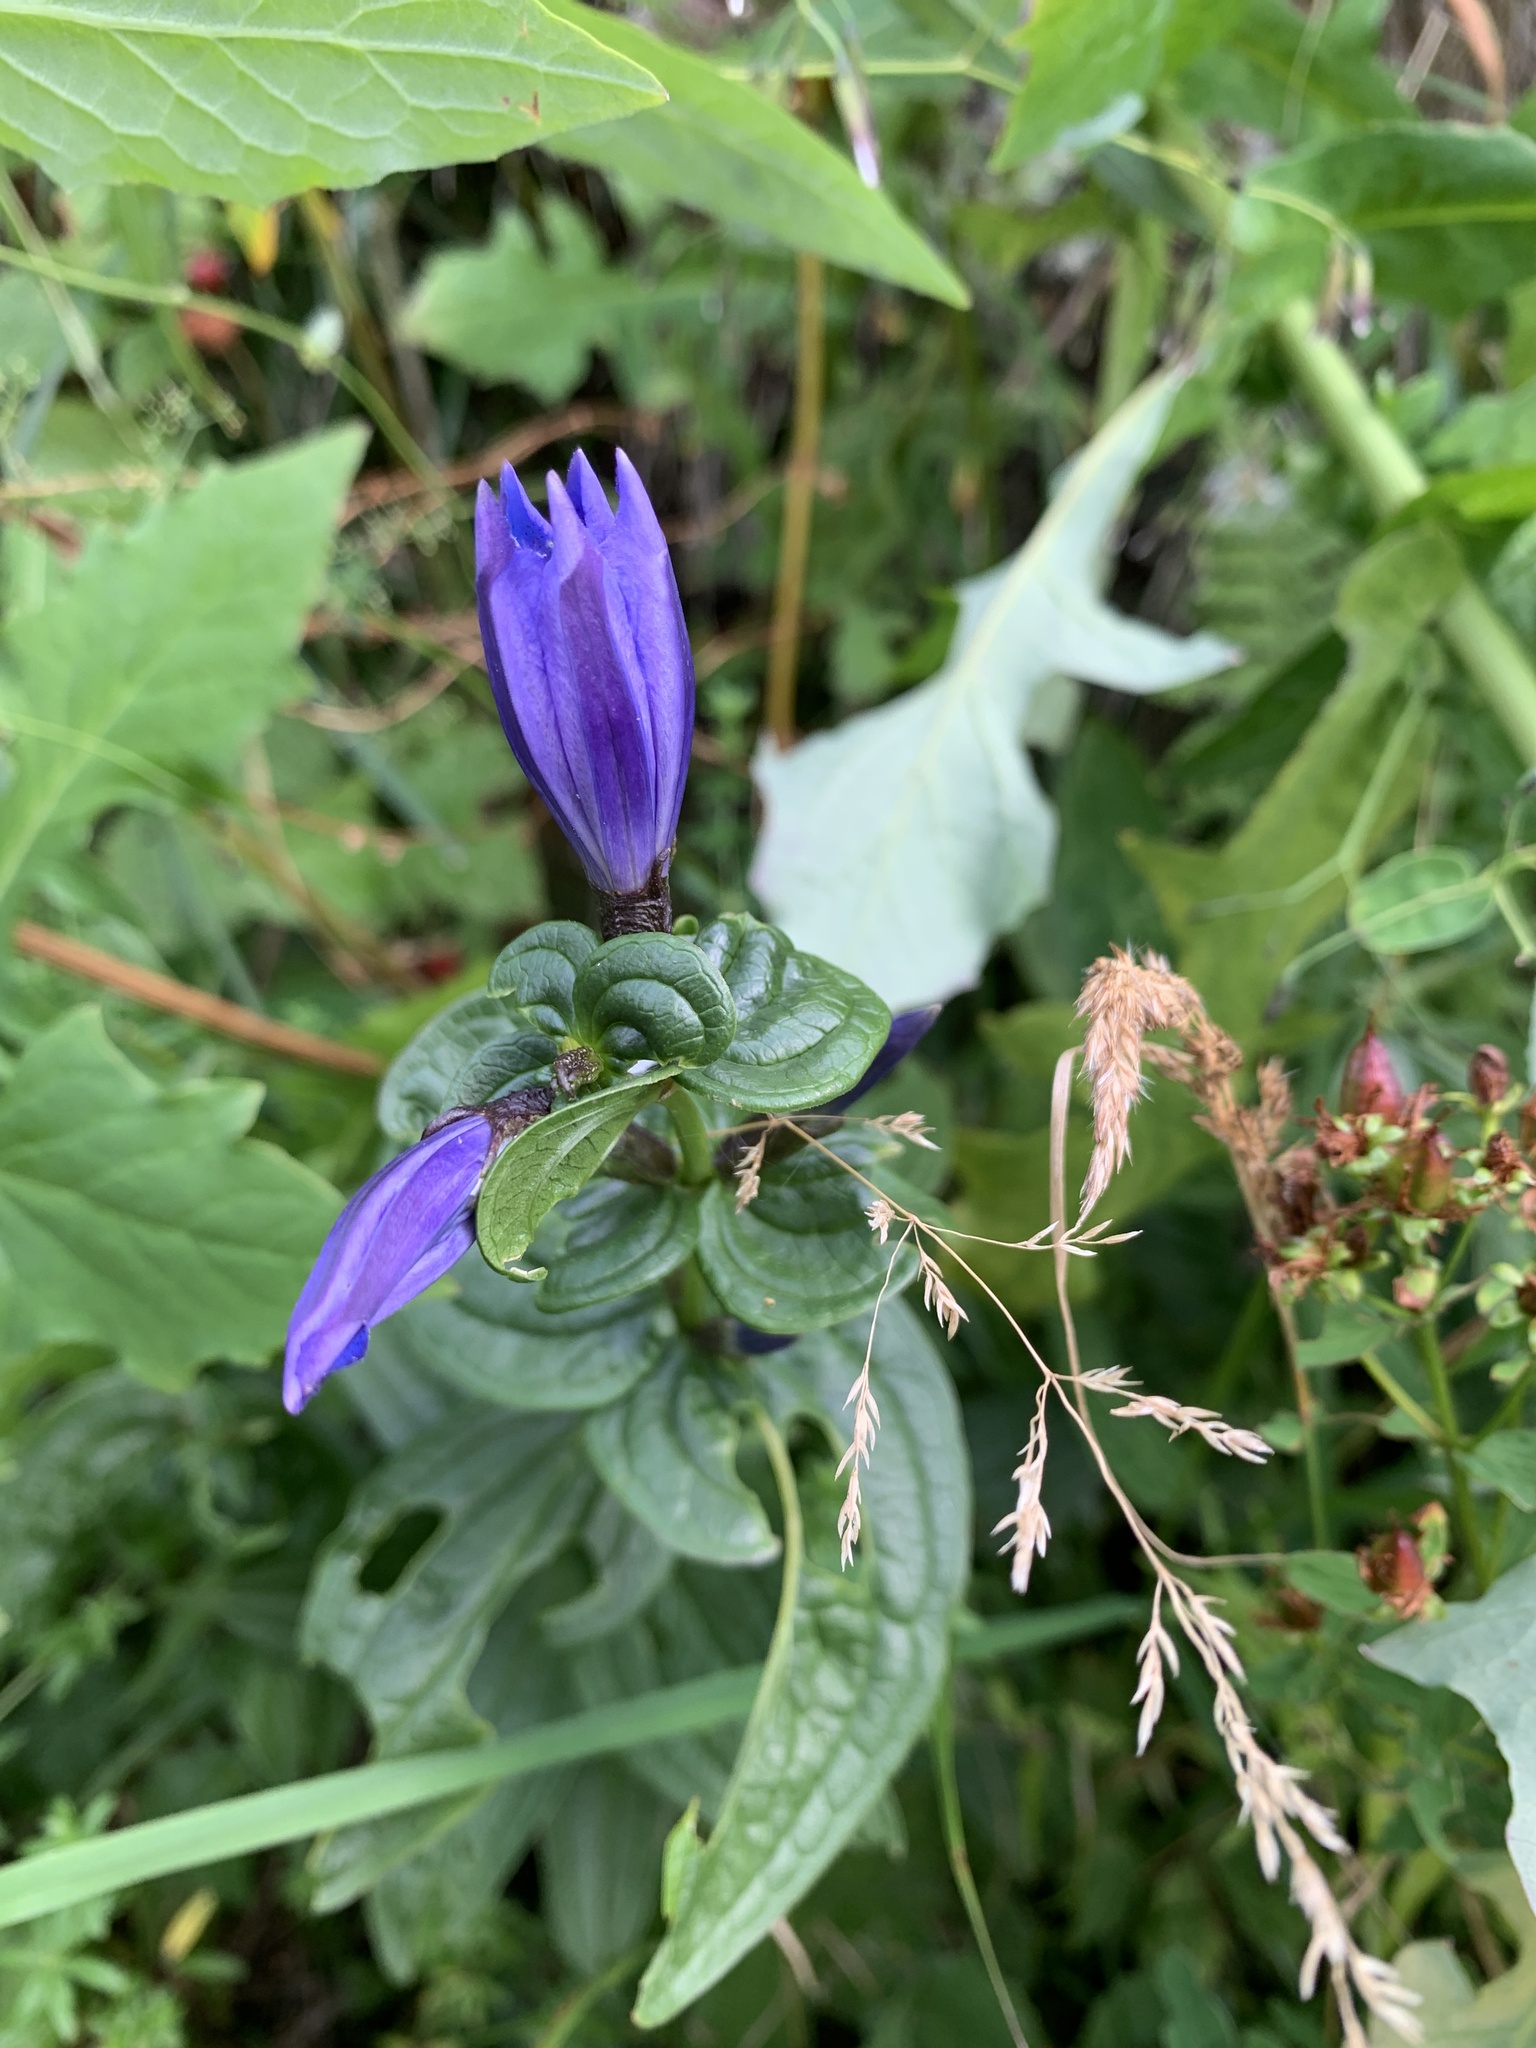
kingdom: Plantae
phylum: Tracheophyta
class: Magnoliopsida
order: Gentianales
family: Gentianaceae
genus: Gentiana
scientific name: Gentiana asclepiadea
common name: Willow gentian
